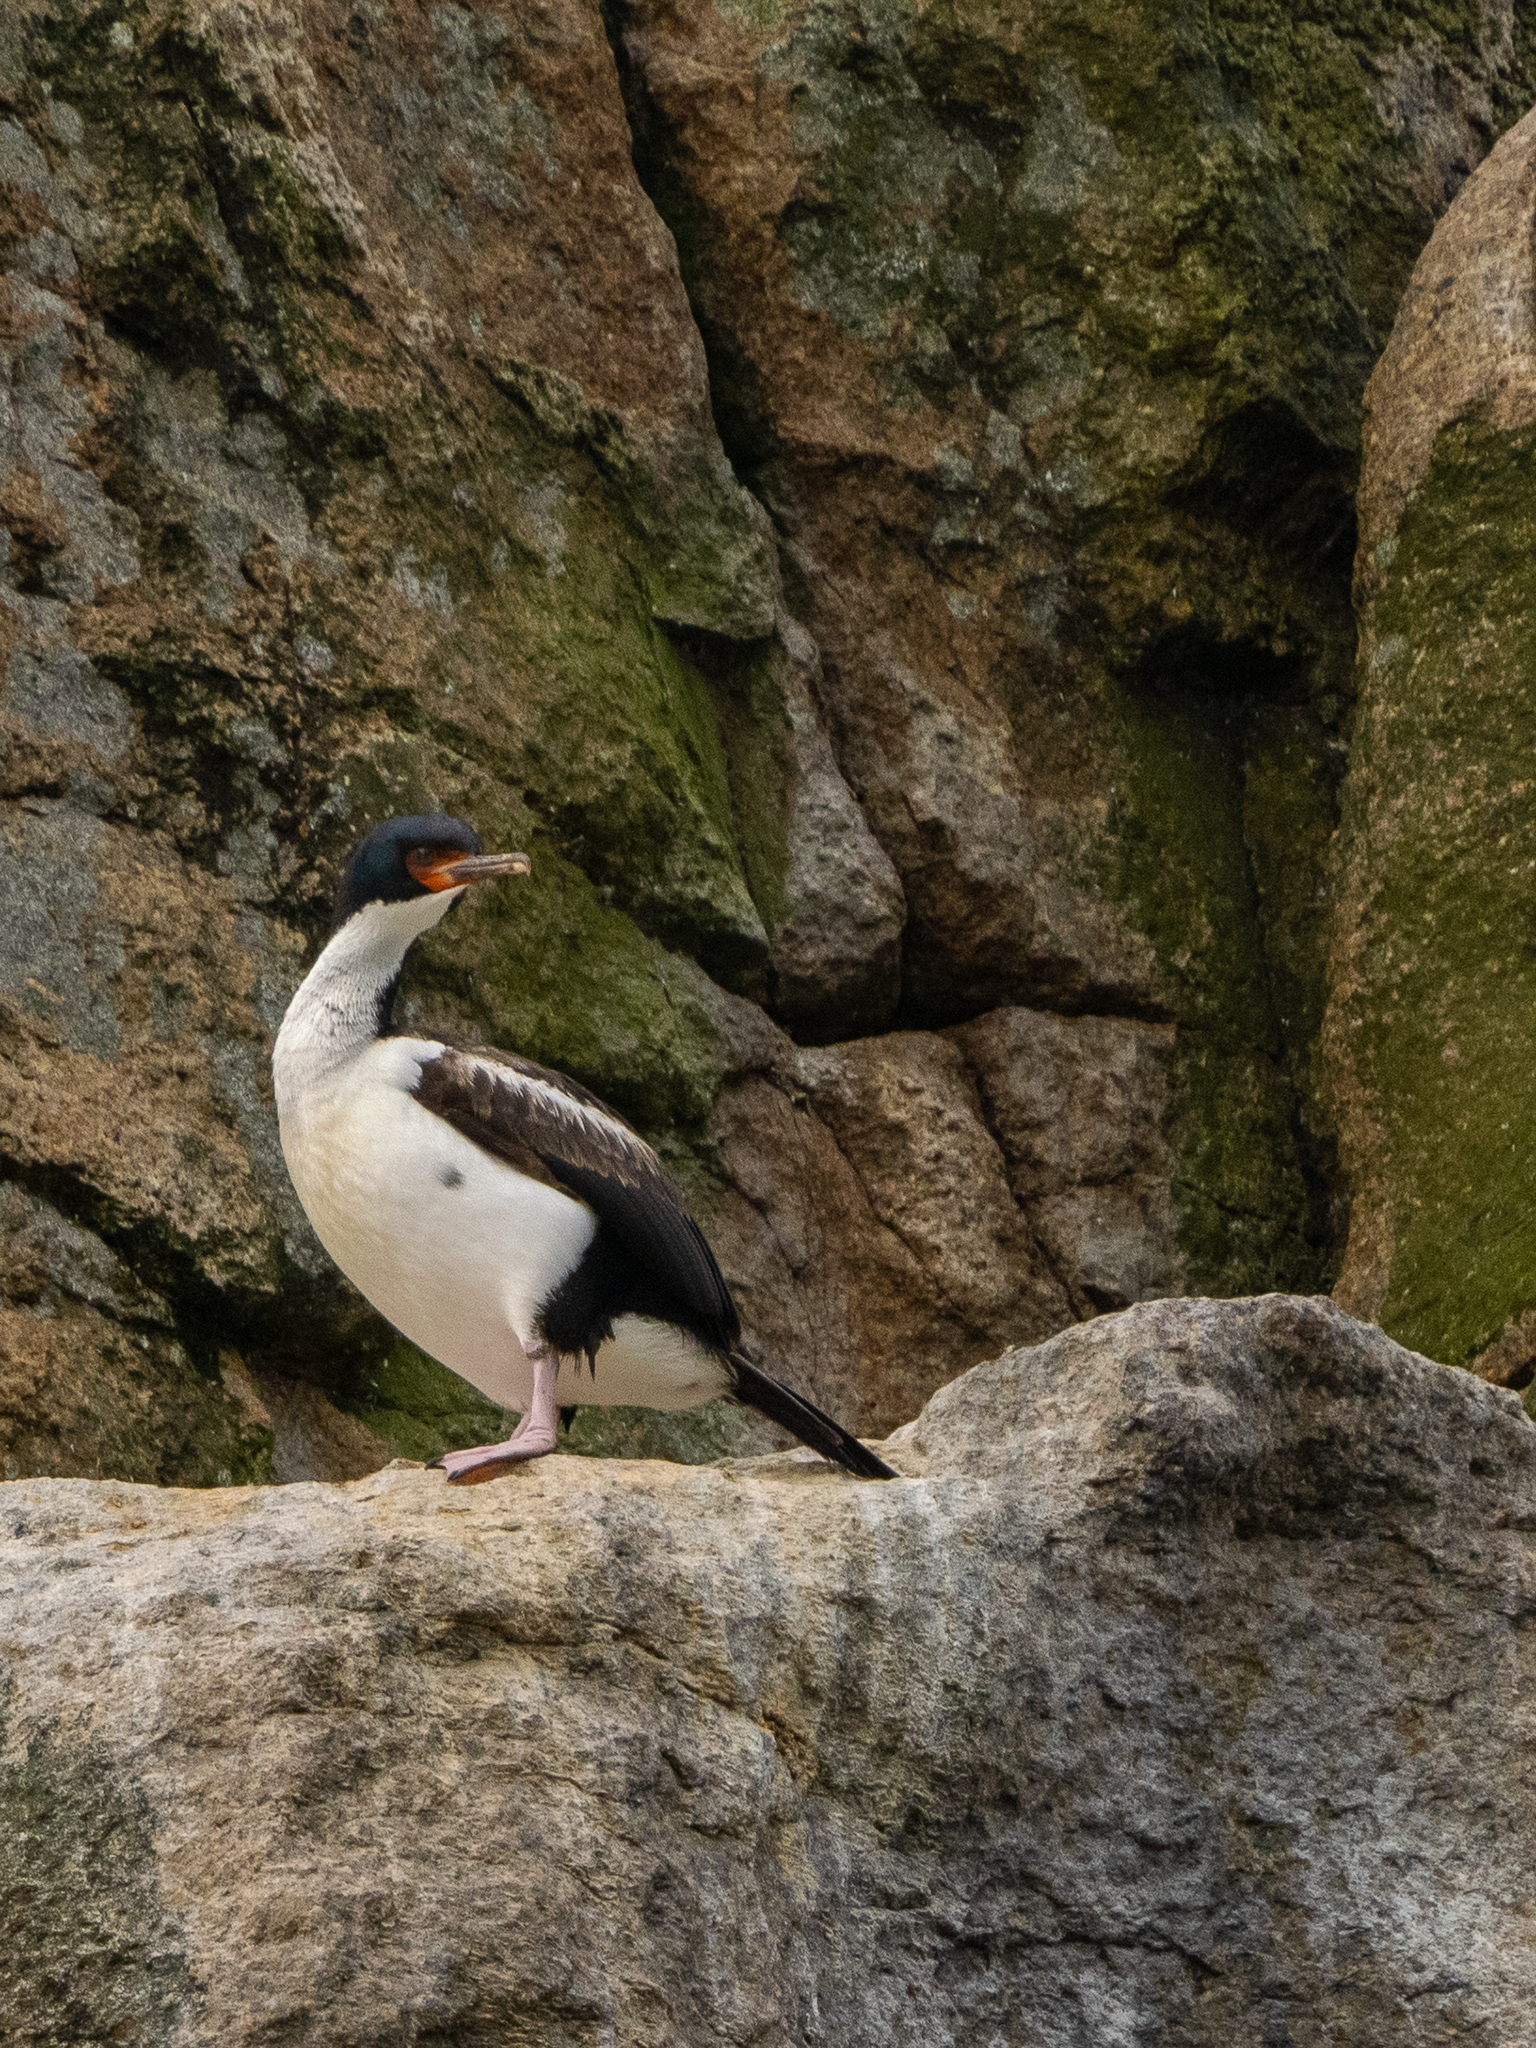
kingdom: Animalia
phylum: Chordata
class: Aves
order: Suliformes
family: Phalacrocoracidae
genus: Leucocarbo
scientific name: Leucocarbo ranfurlyi
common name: Bounty shag
